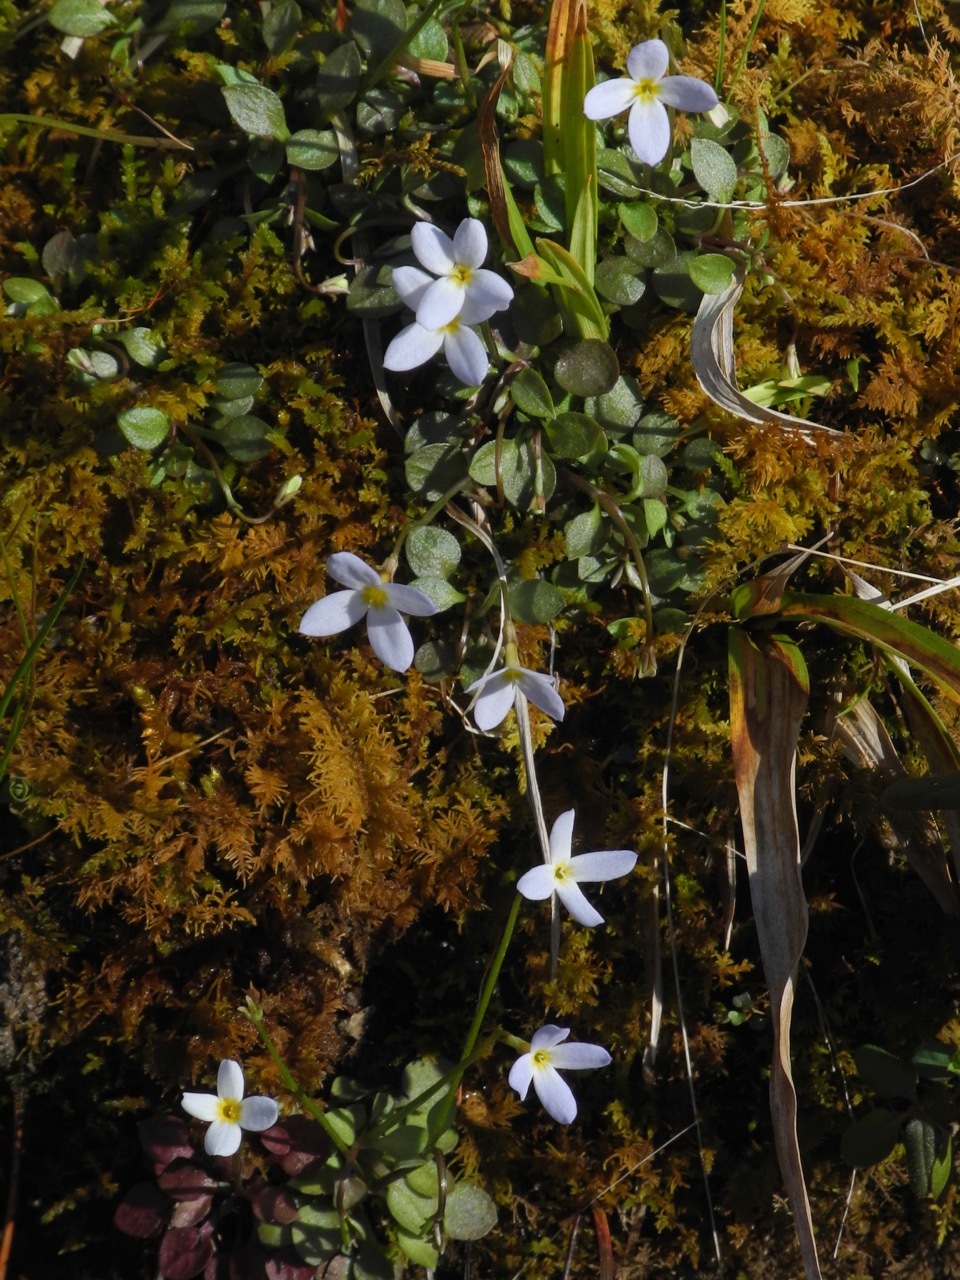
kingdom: Plantae
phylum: Tracheophyta
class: Magnoliopsida
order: Gentianales
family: Rubiaceae
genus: Houstonia
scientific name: Houstonia caerulea
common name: Bluets
